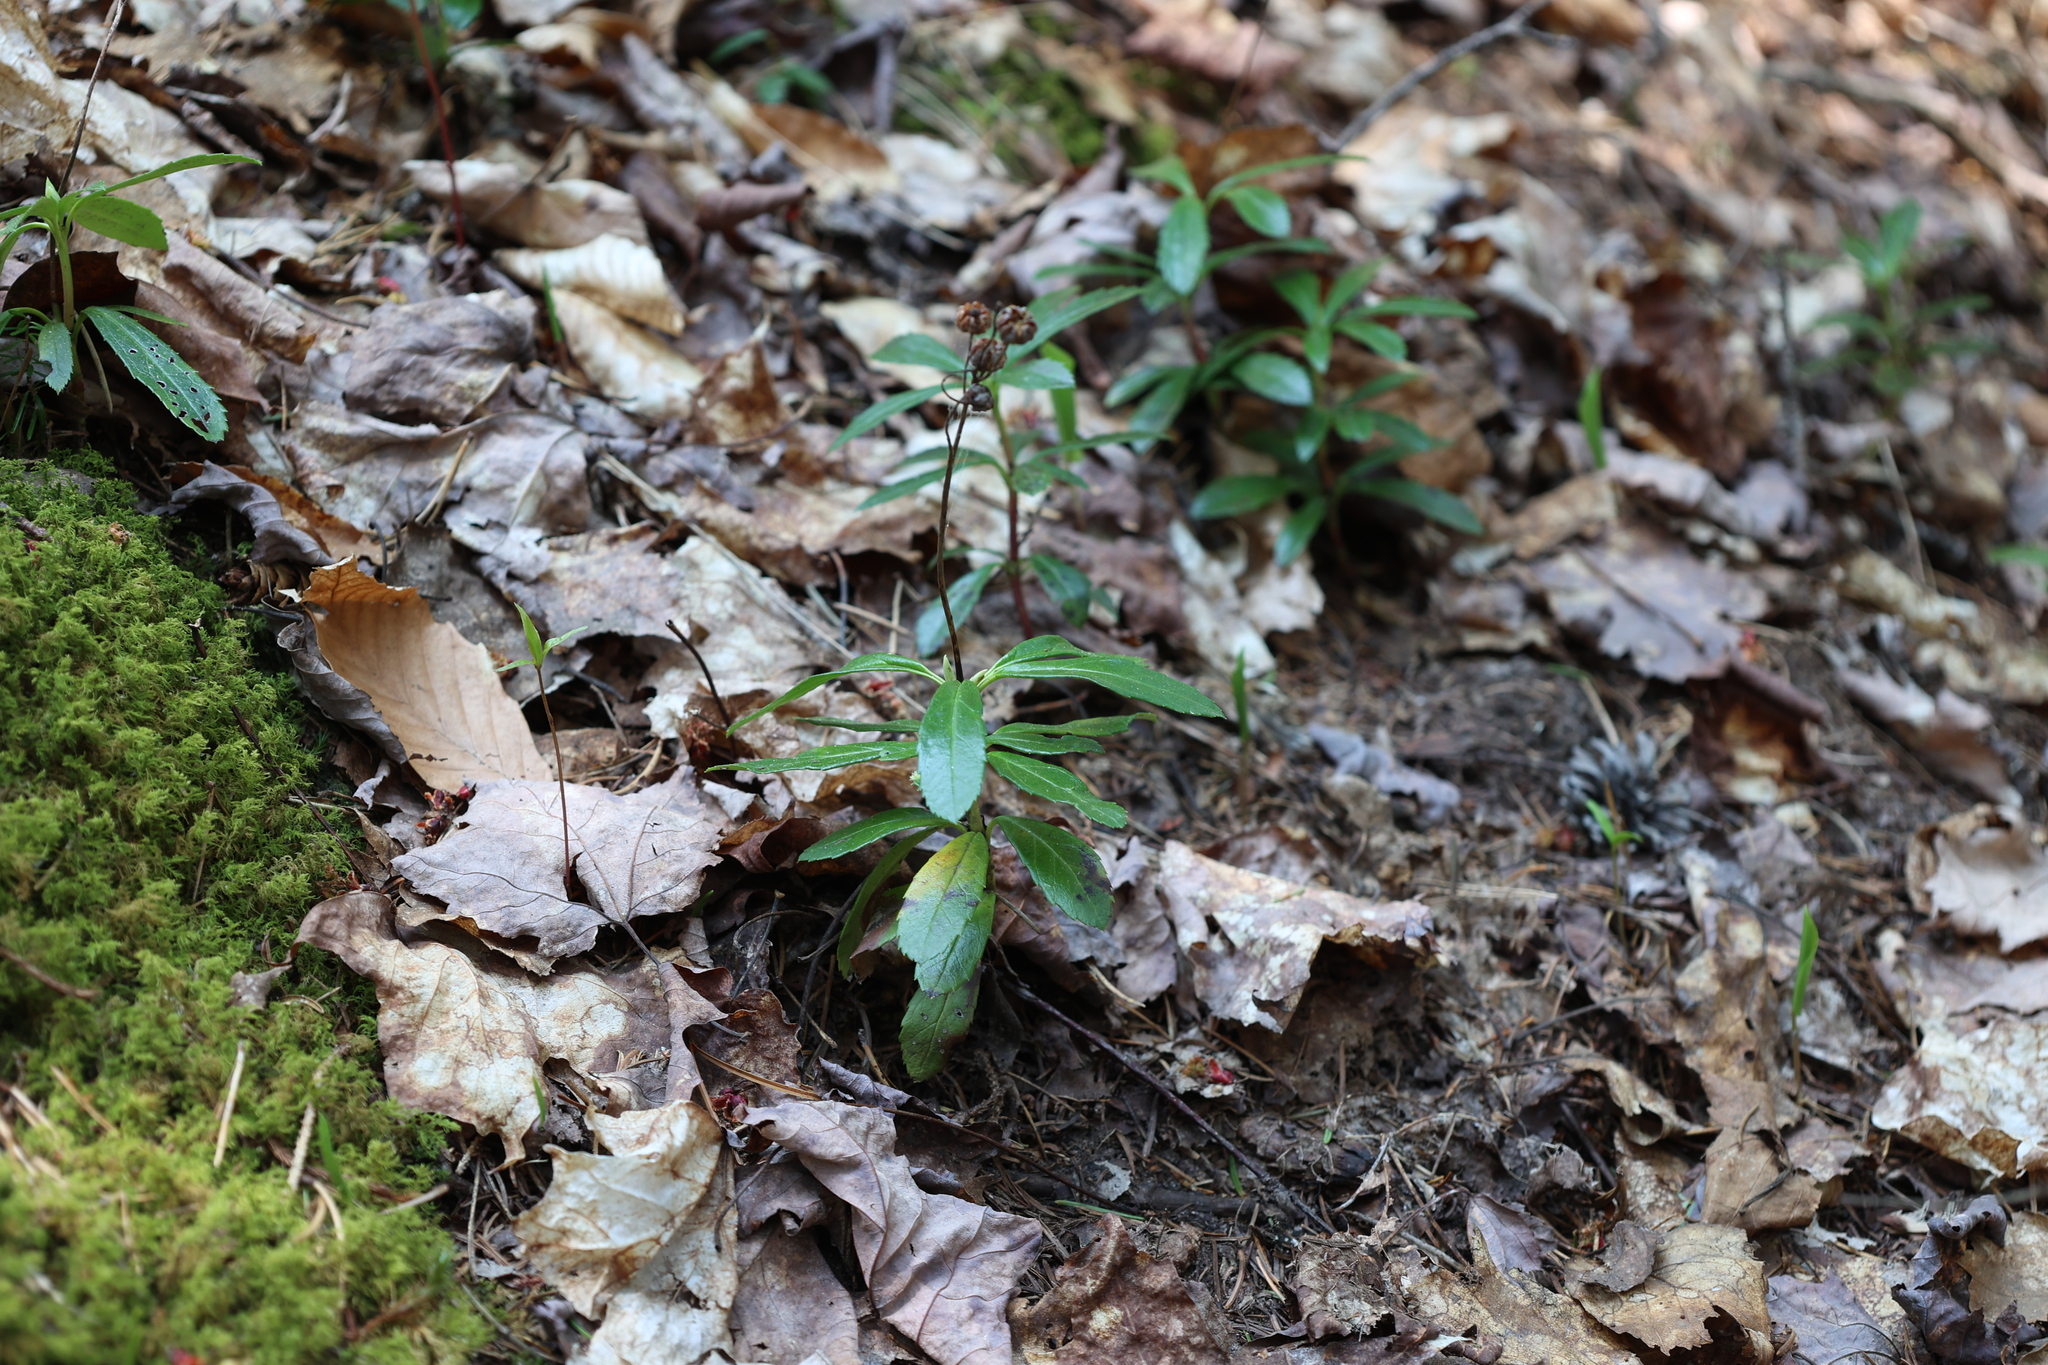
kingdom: Plantae
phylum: Tracheophyta
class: Magnoliopsida
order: Ericales
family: Ericaceae
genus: Chimaphila
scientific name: Chimaphila umbellata
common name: Pipsissewa
